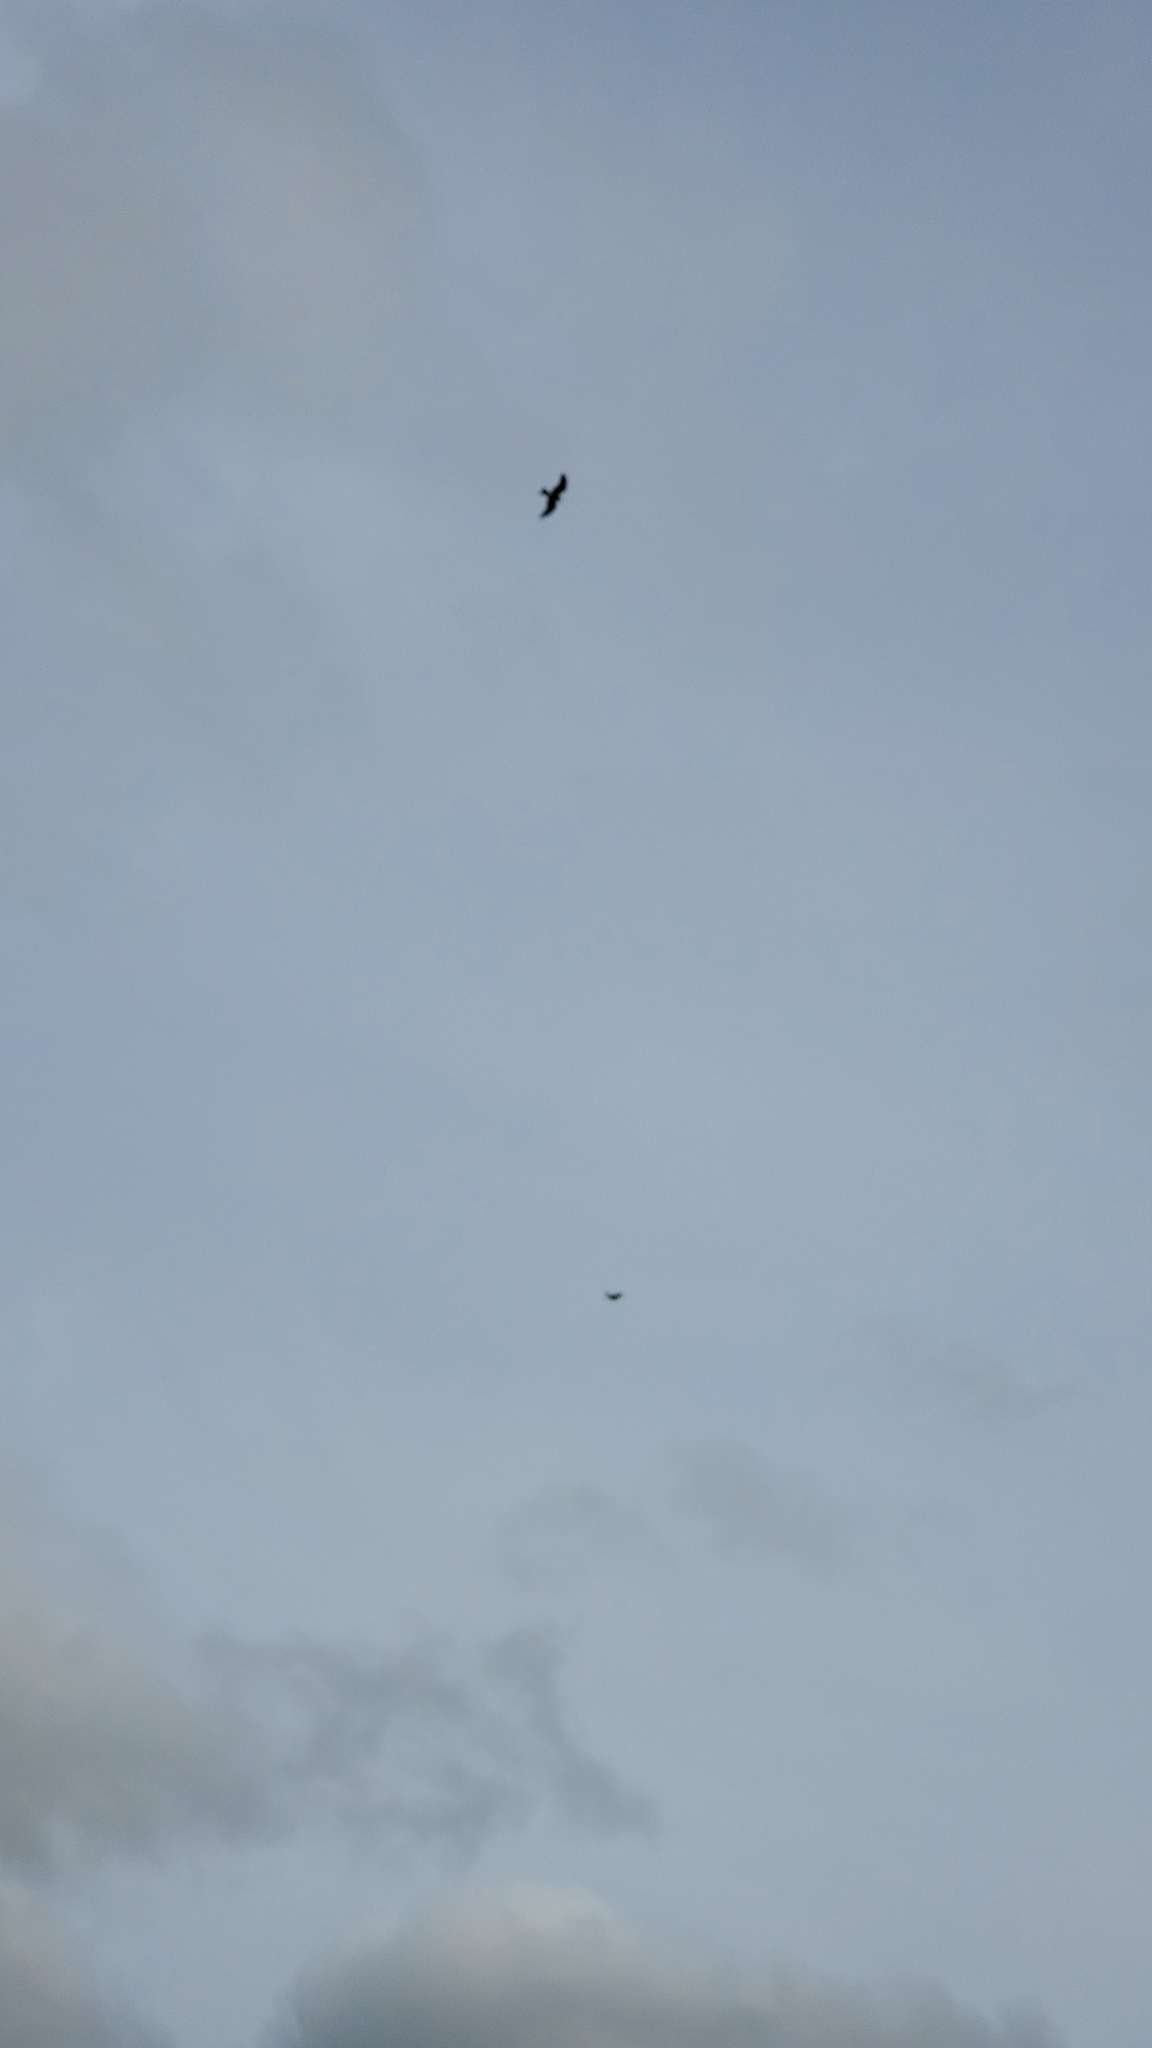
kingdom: Animalia
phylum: Chordata
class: Aves
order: Accipitriformes
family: Accipitridae
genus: Milvus
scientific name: Milvus milvus
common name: Red kite
